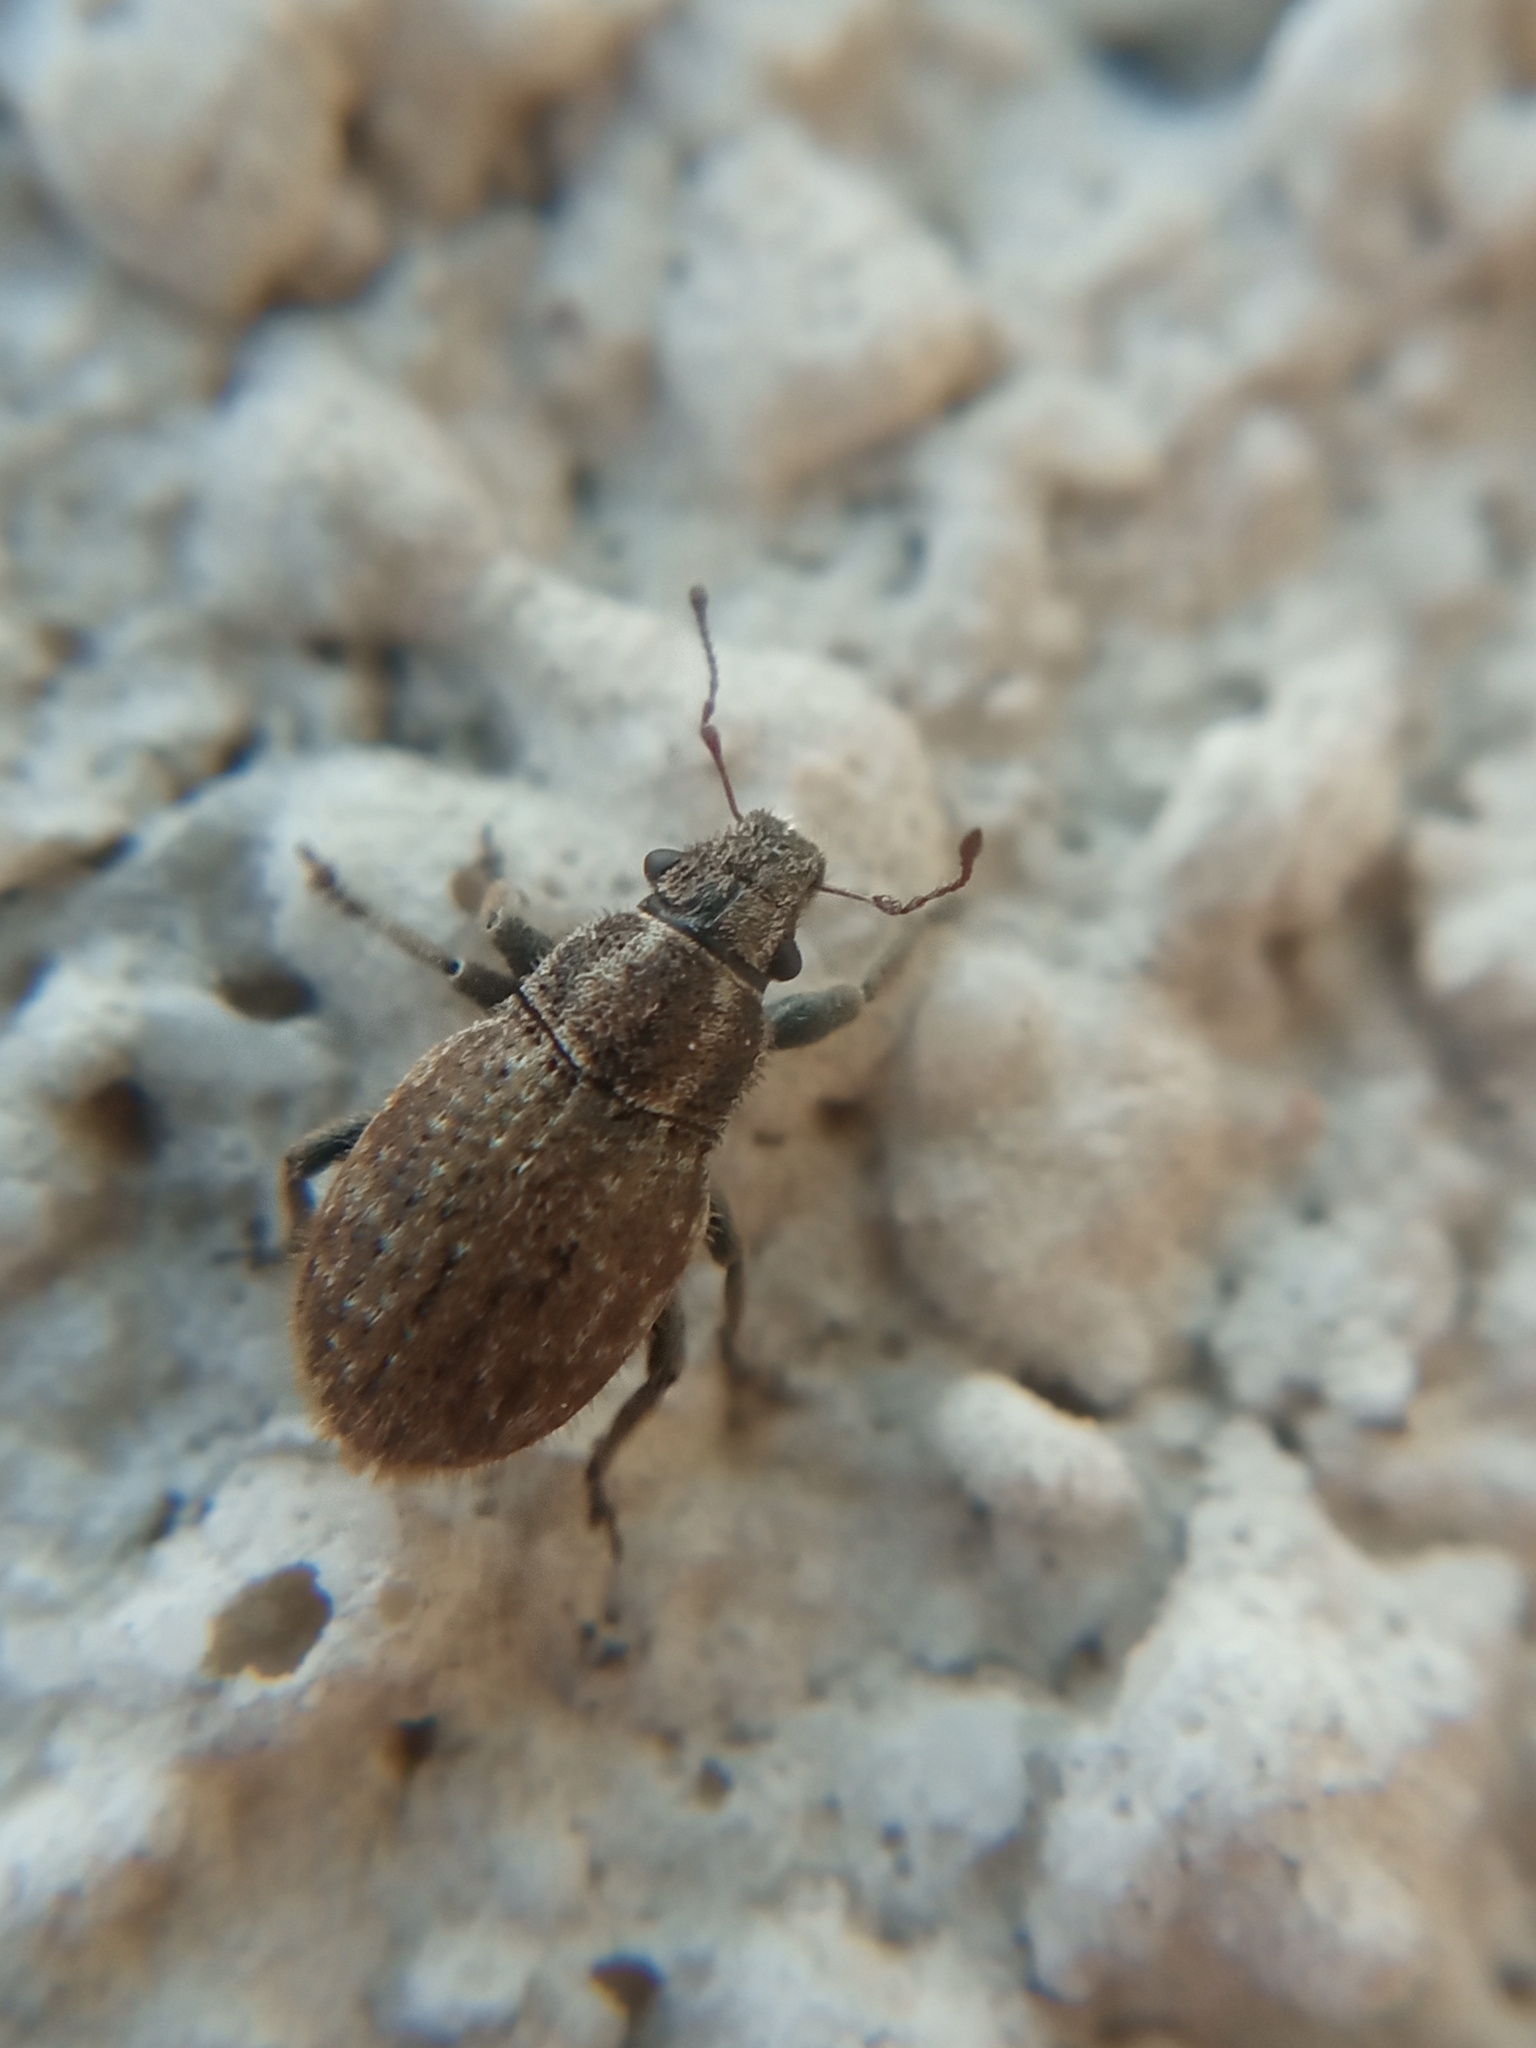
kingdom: Animalia
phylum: Arthropoda
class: Insecta
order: Coleoptera
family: Curculionidae
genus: Strophosoma
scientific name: Strophosoma faber
